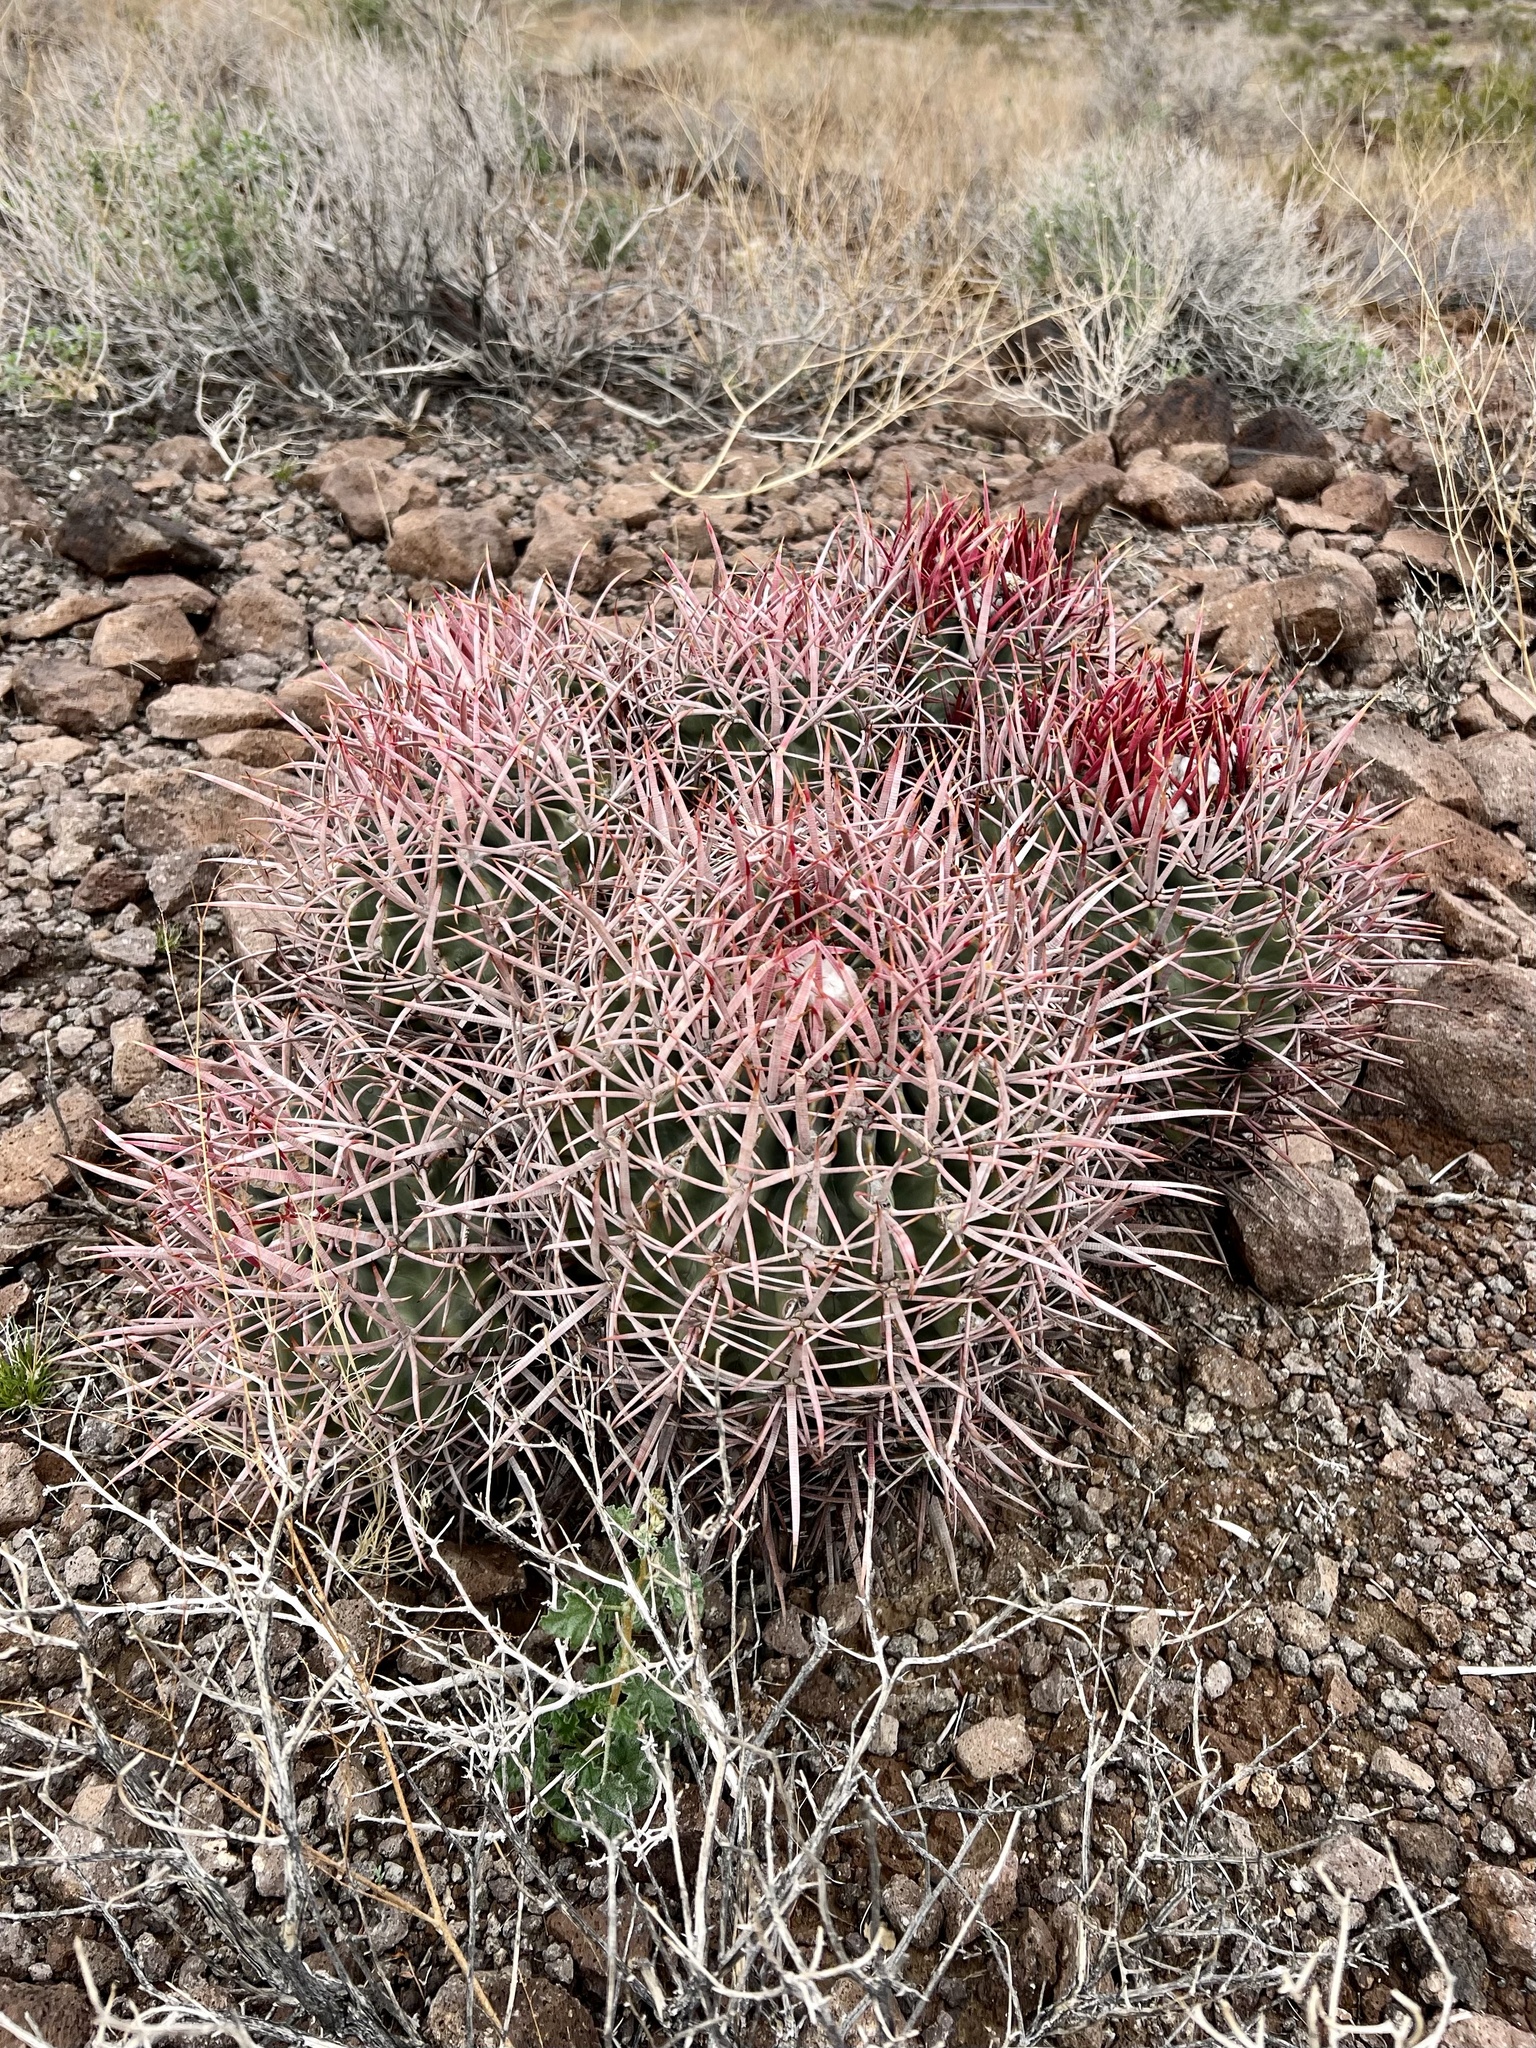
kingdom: Plantae
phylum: Tracheophyta
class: Magnoliopsida
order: Caryophyllales
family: Cactaceae
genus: Echinocactus
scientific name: Echinocactus polycephalus
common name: Cottontop cactus
